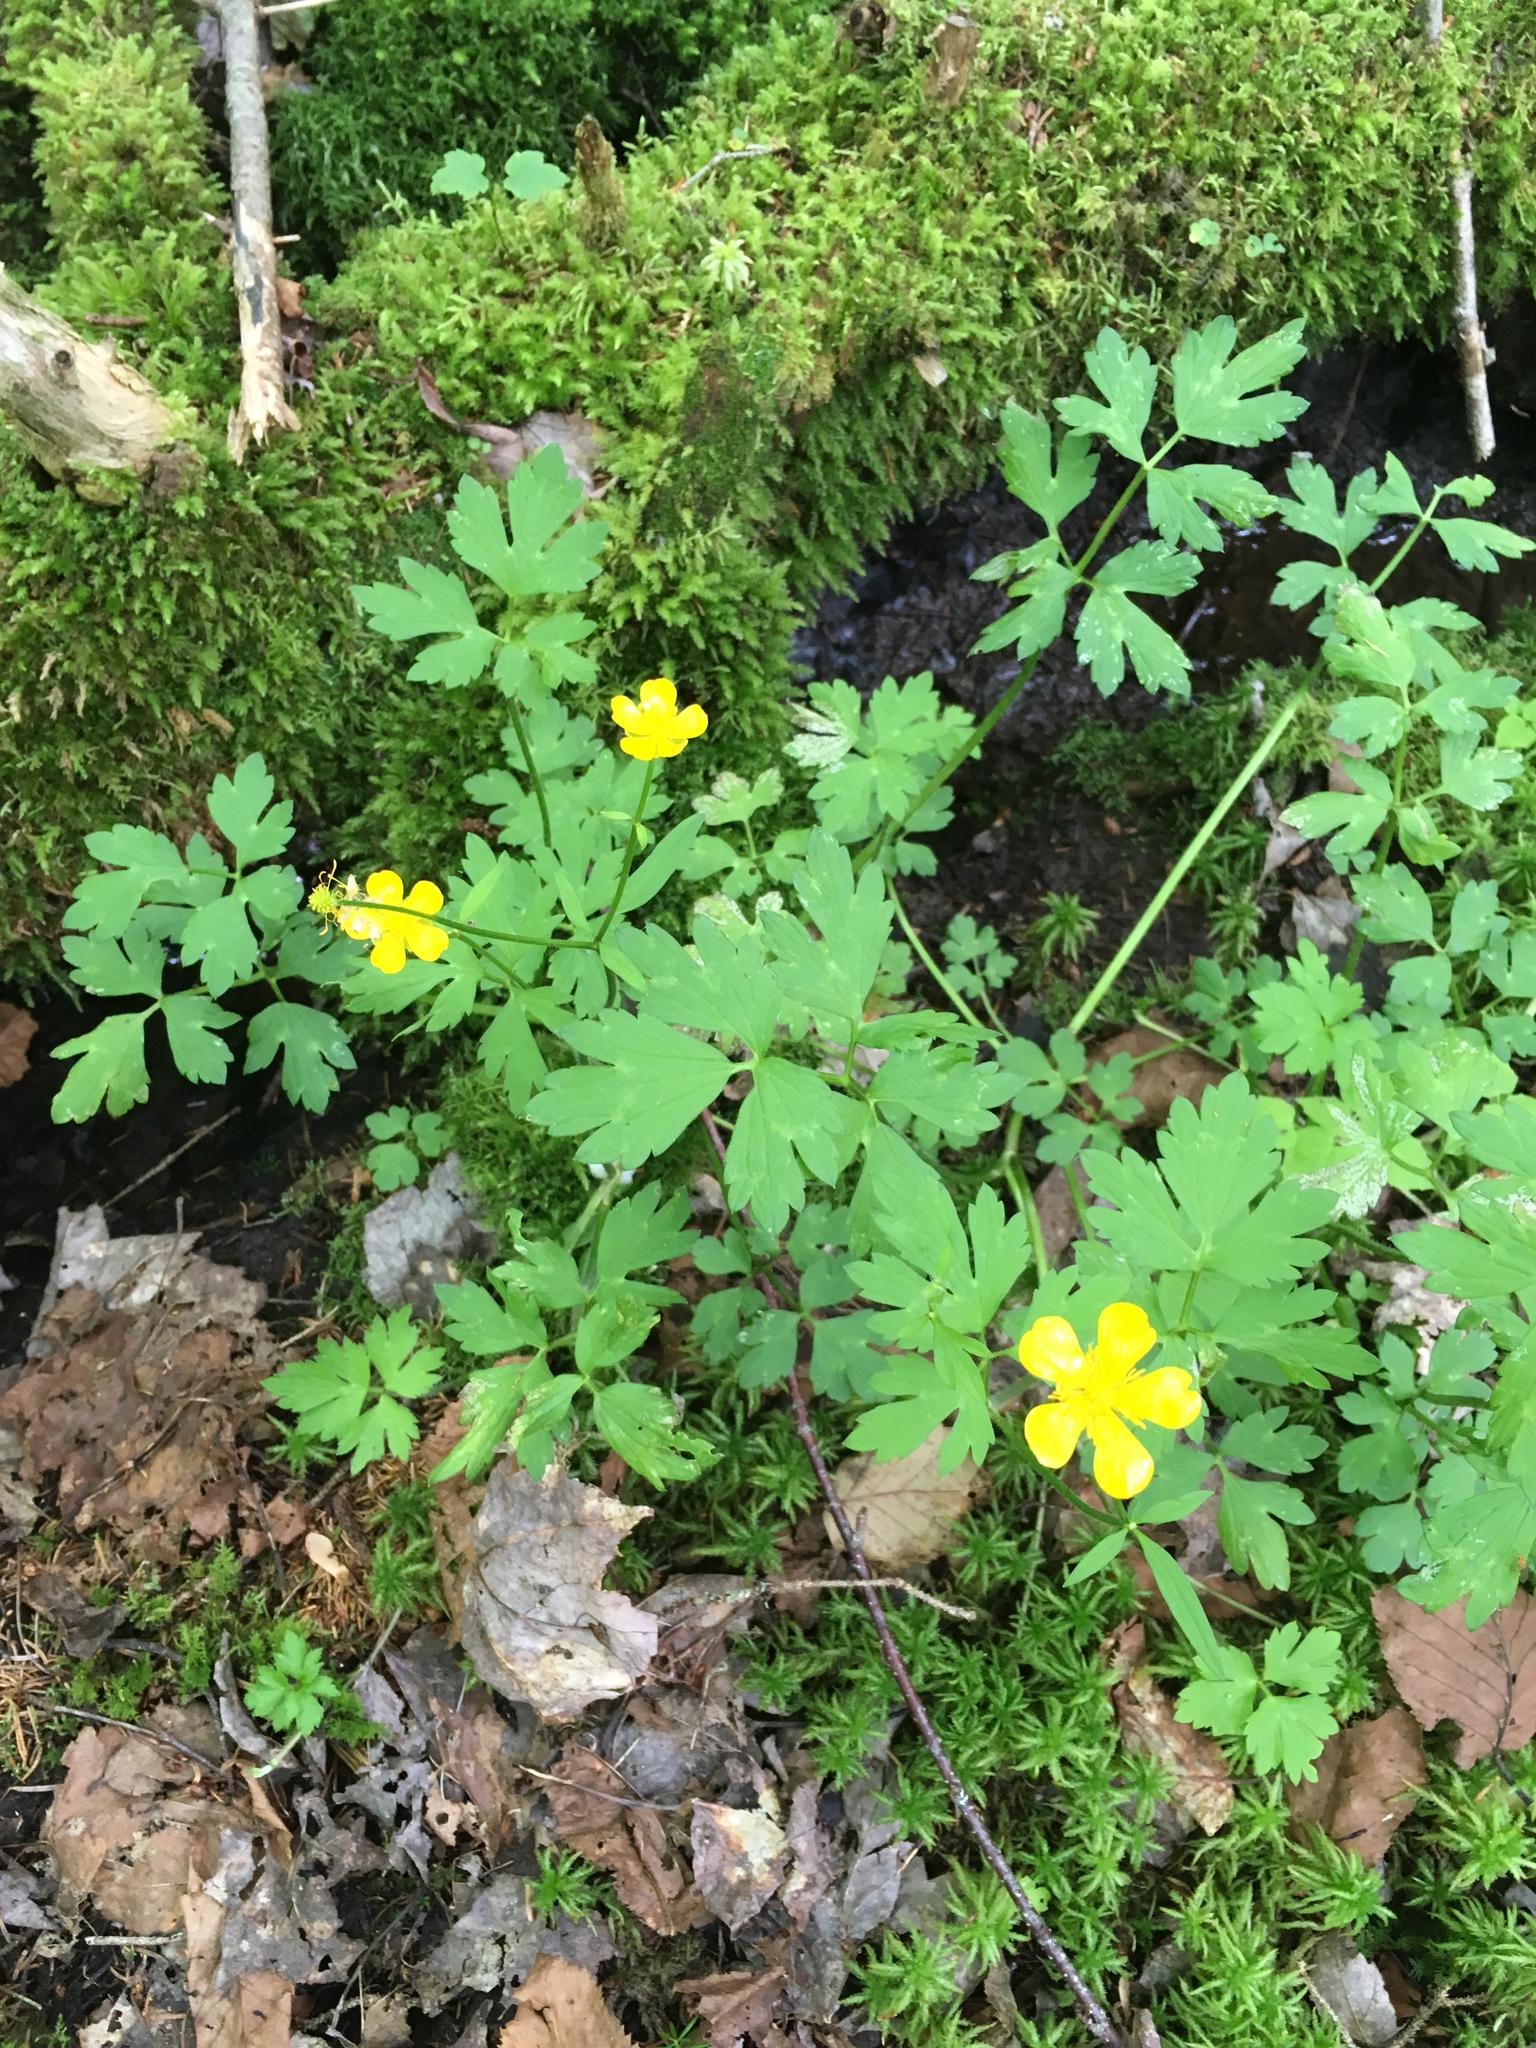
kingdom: Plantae
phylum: Tracheophyta
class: Magnoliopsida
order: Ranunculales
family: Ranunculaceae
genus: Ranunculus
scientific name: Ranunculus repens
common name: Creeping buttercup
